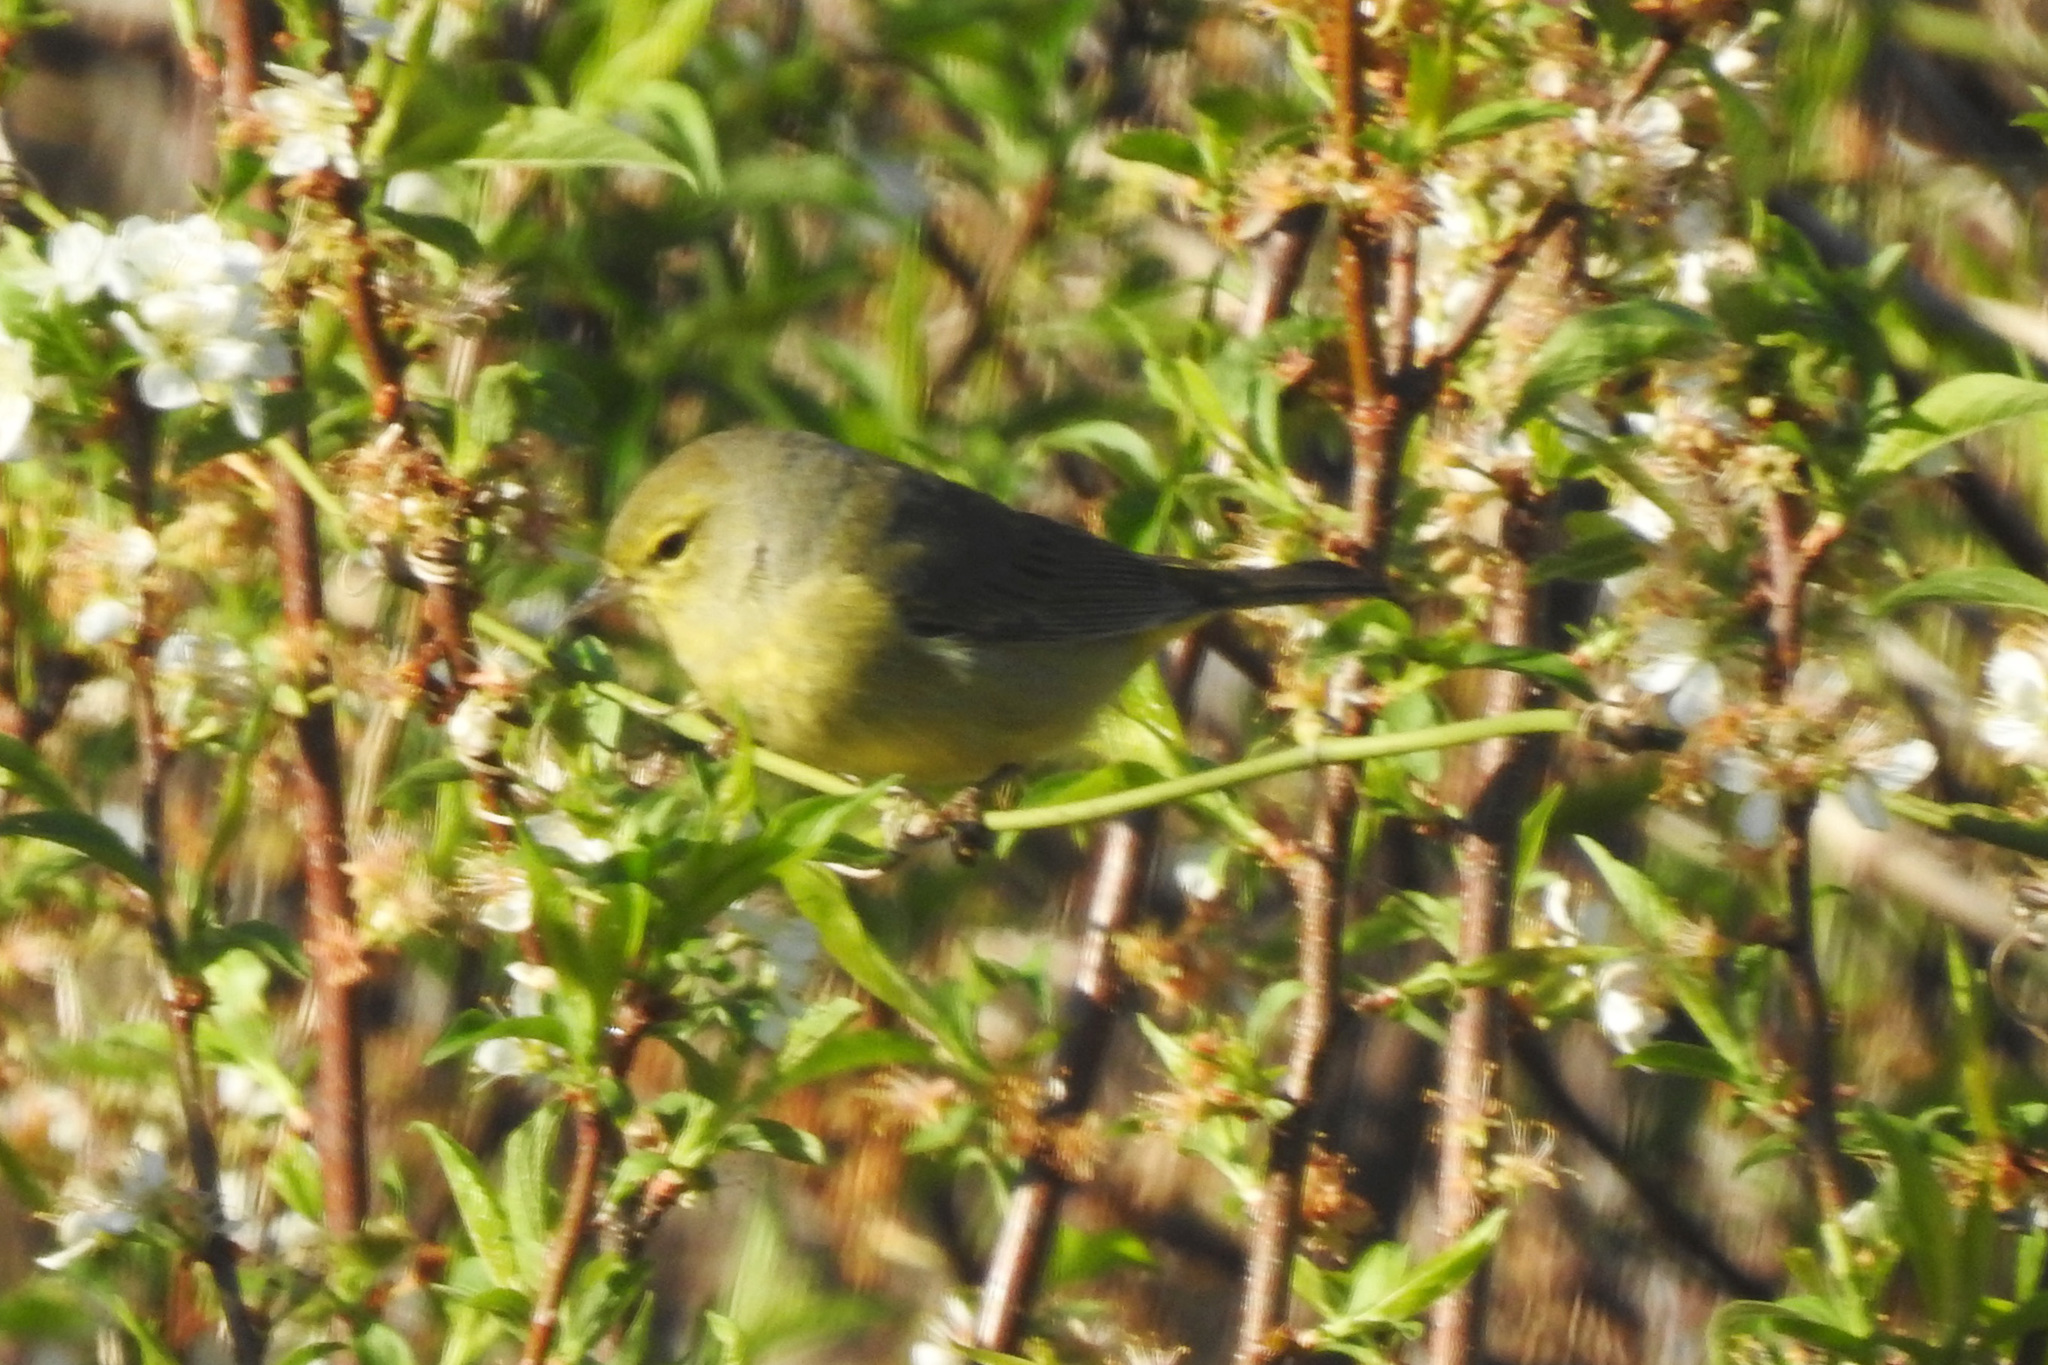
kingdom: Animalia
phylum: Chordata
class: Aves
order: Passeriformes
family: Parulidae
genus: Leiothlypis
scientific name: Leiothlypis celata
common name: Orange-crowned warbler
